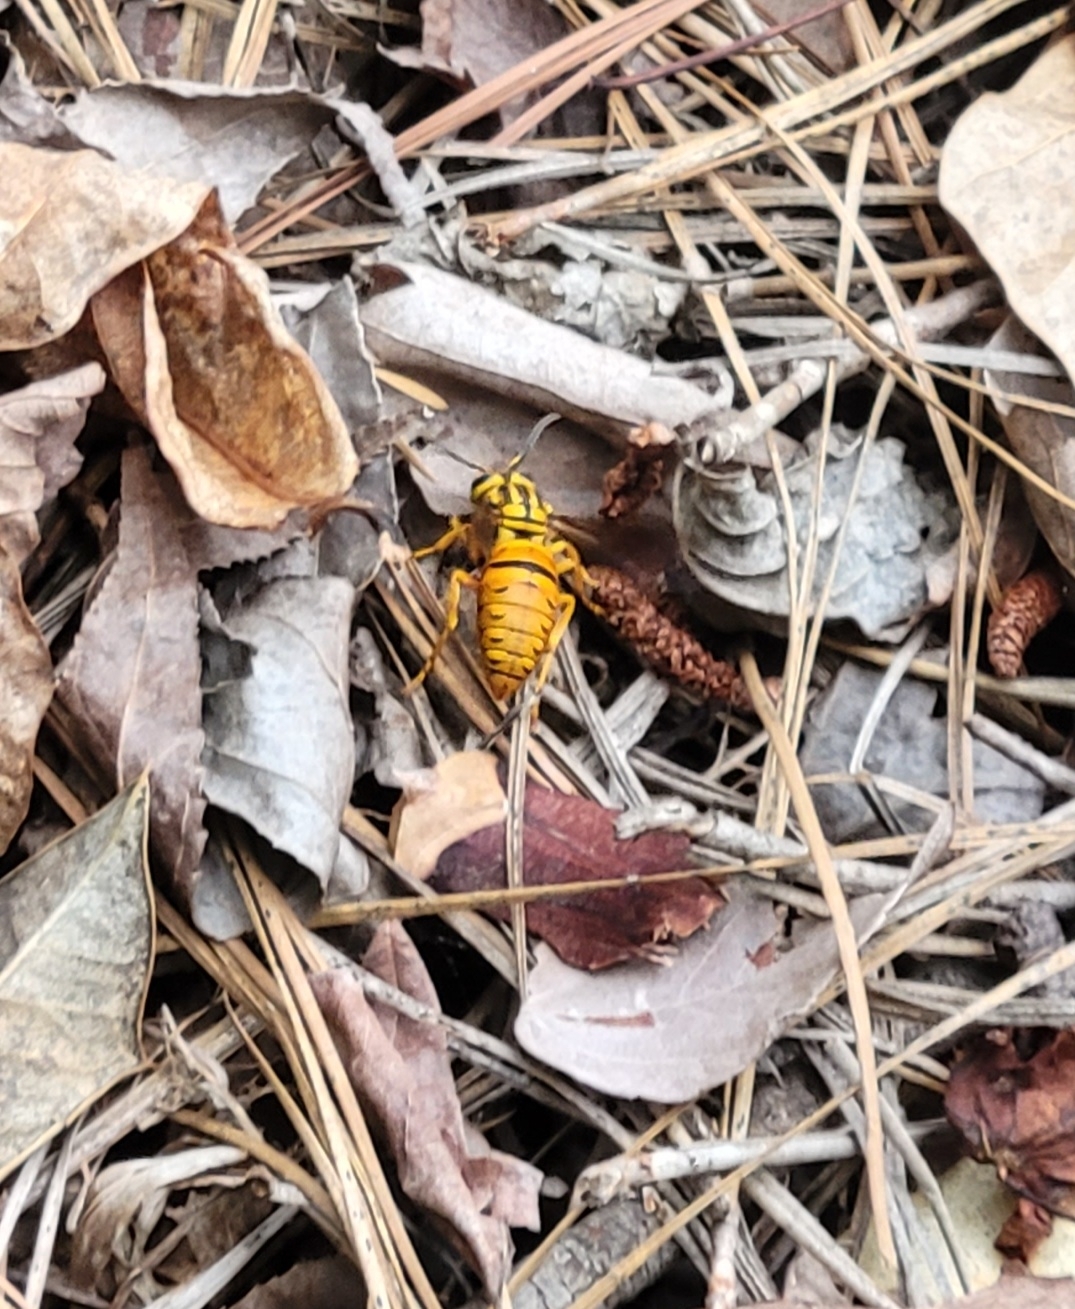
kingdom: Animalia
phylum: Arthropoda
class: Insecta
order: Hymenoptera
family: Vespidae
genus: Vespula
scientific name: Vespula squamosa
